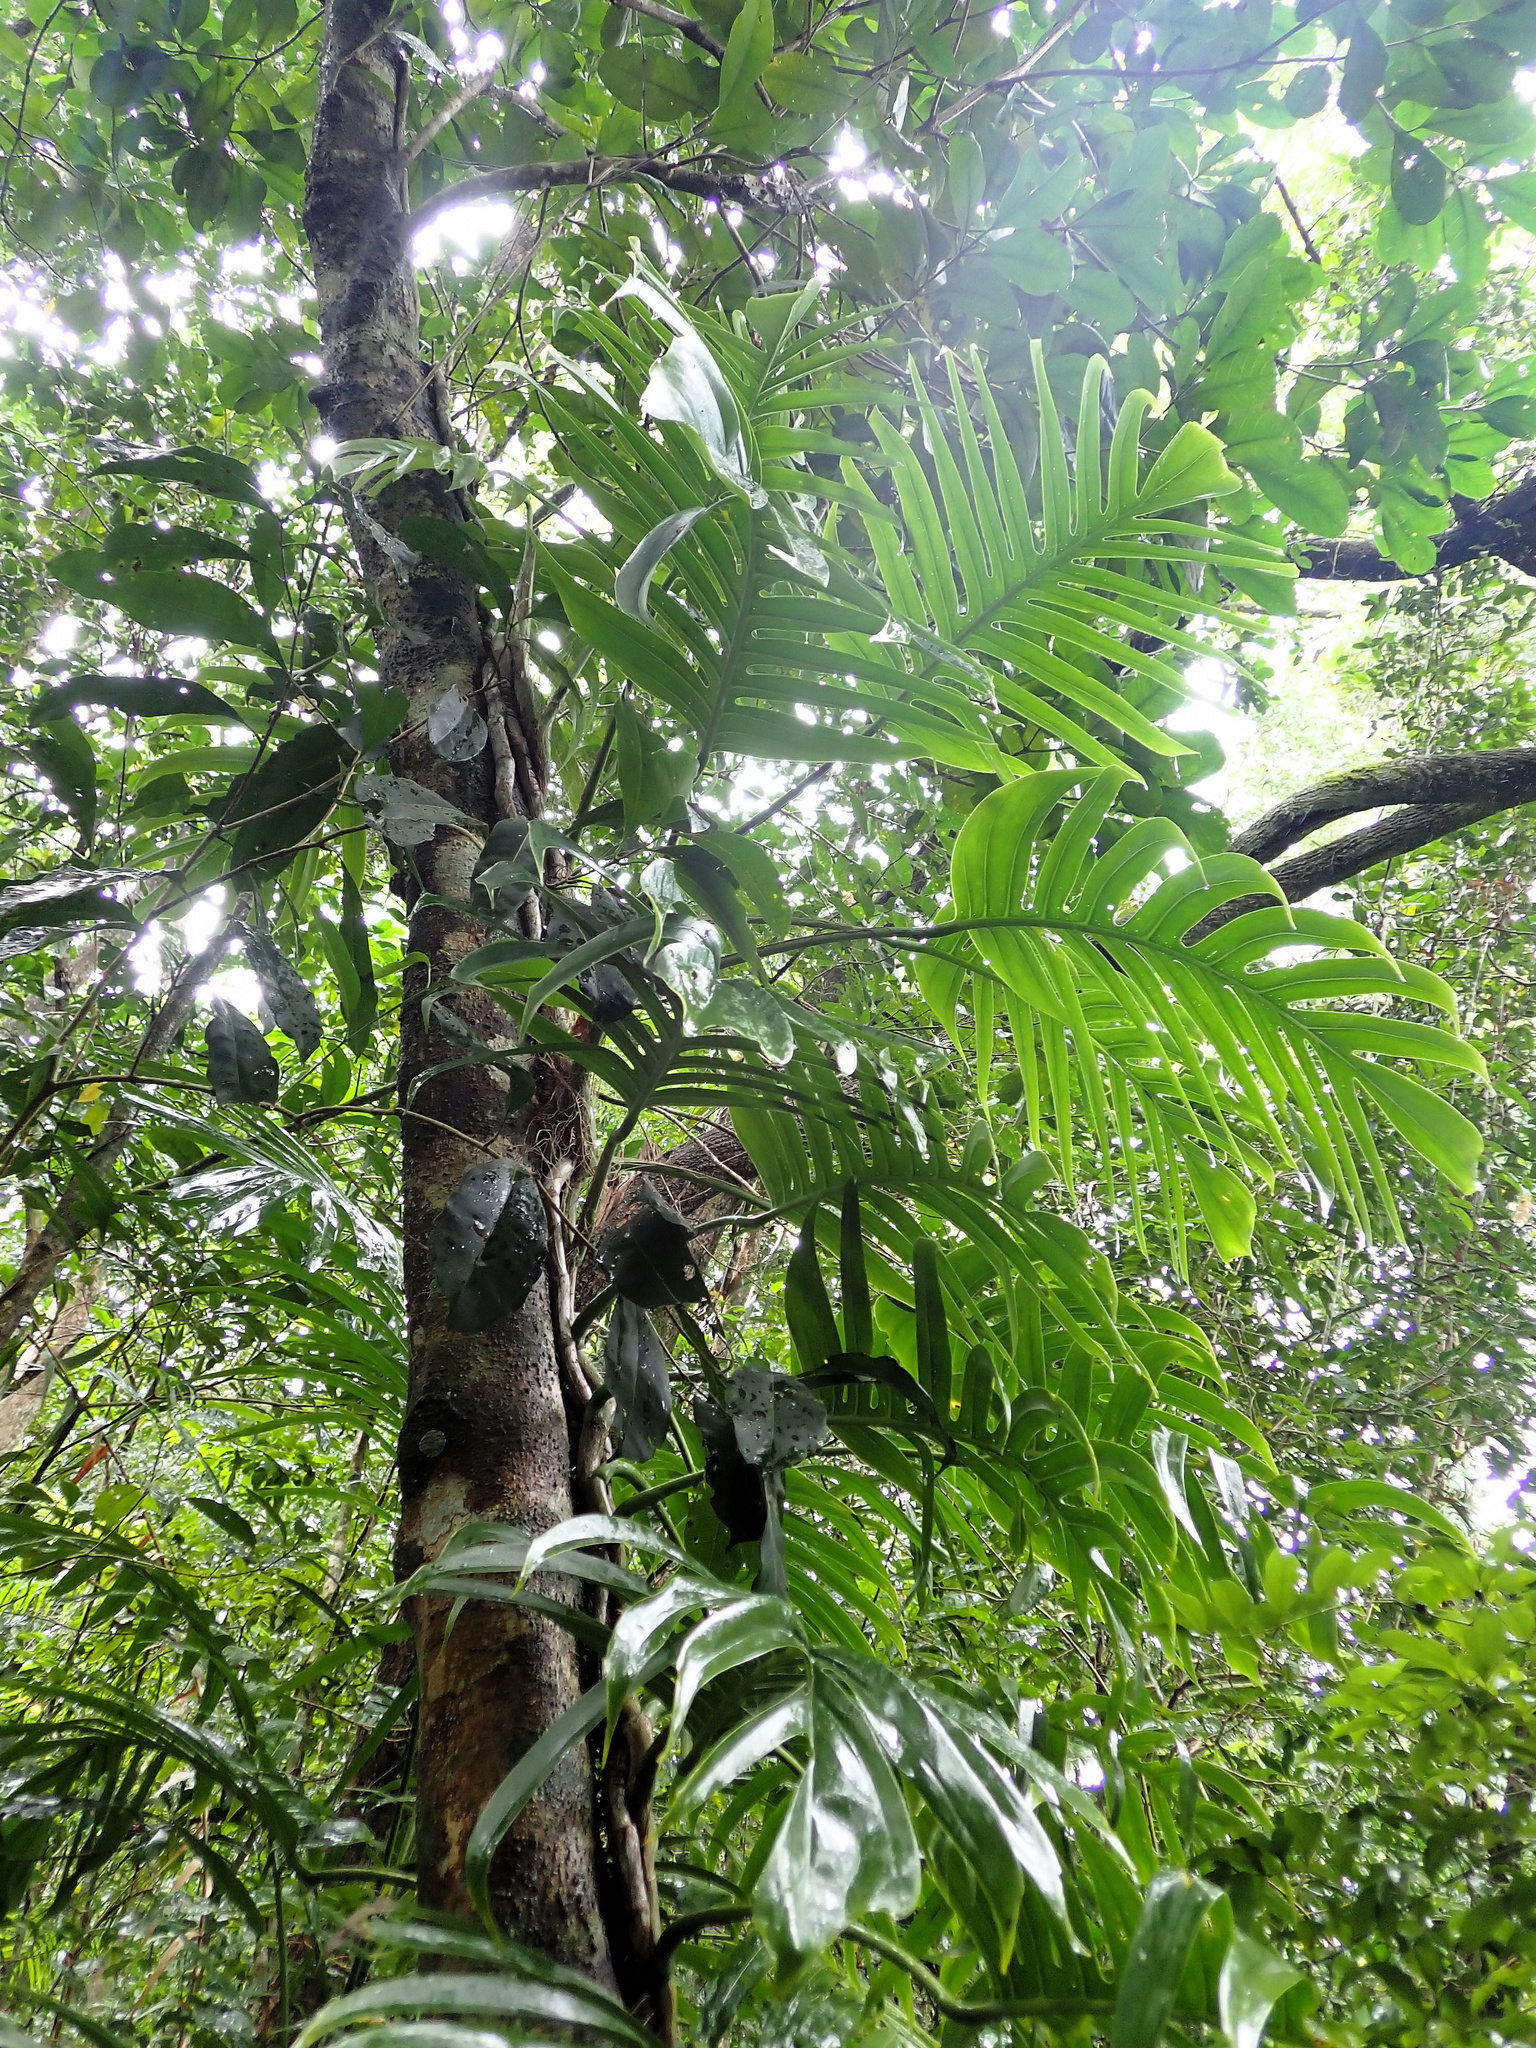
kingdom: Plantae
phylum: Tracheophyta
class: Liliopsida
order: Alismatales
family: Araceae
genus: Epipremnum
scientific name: Epipremnum pinnatum
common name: Centipede tongavine
